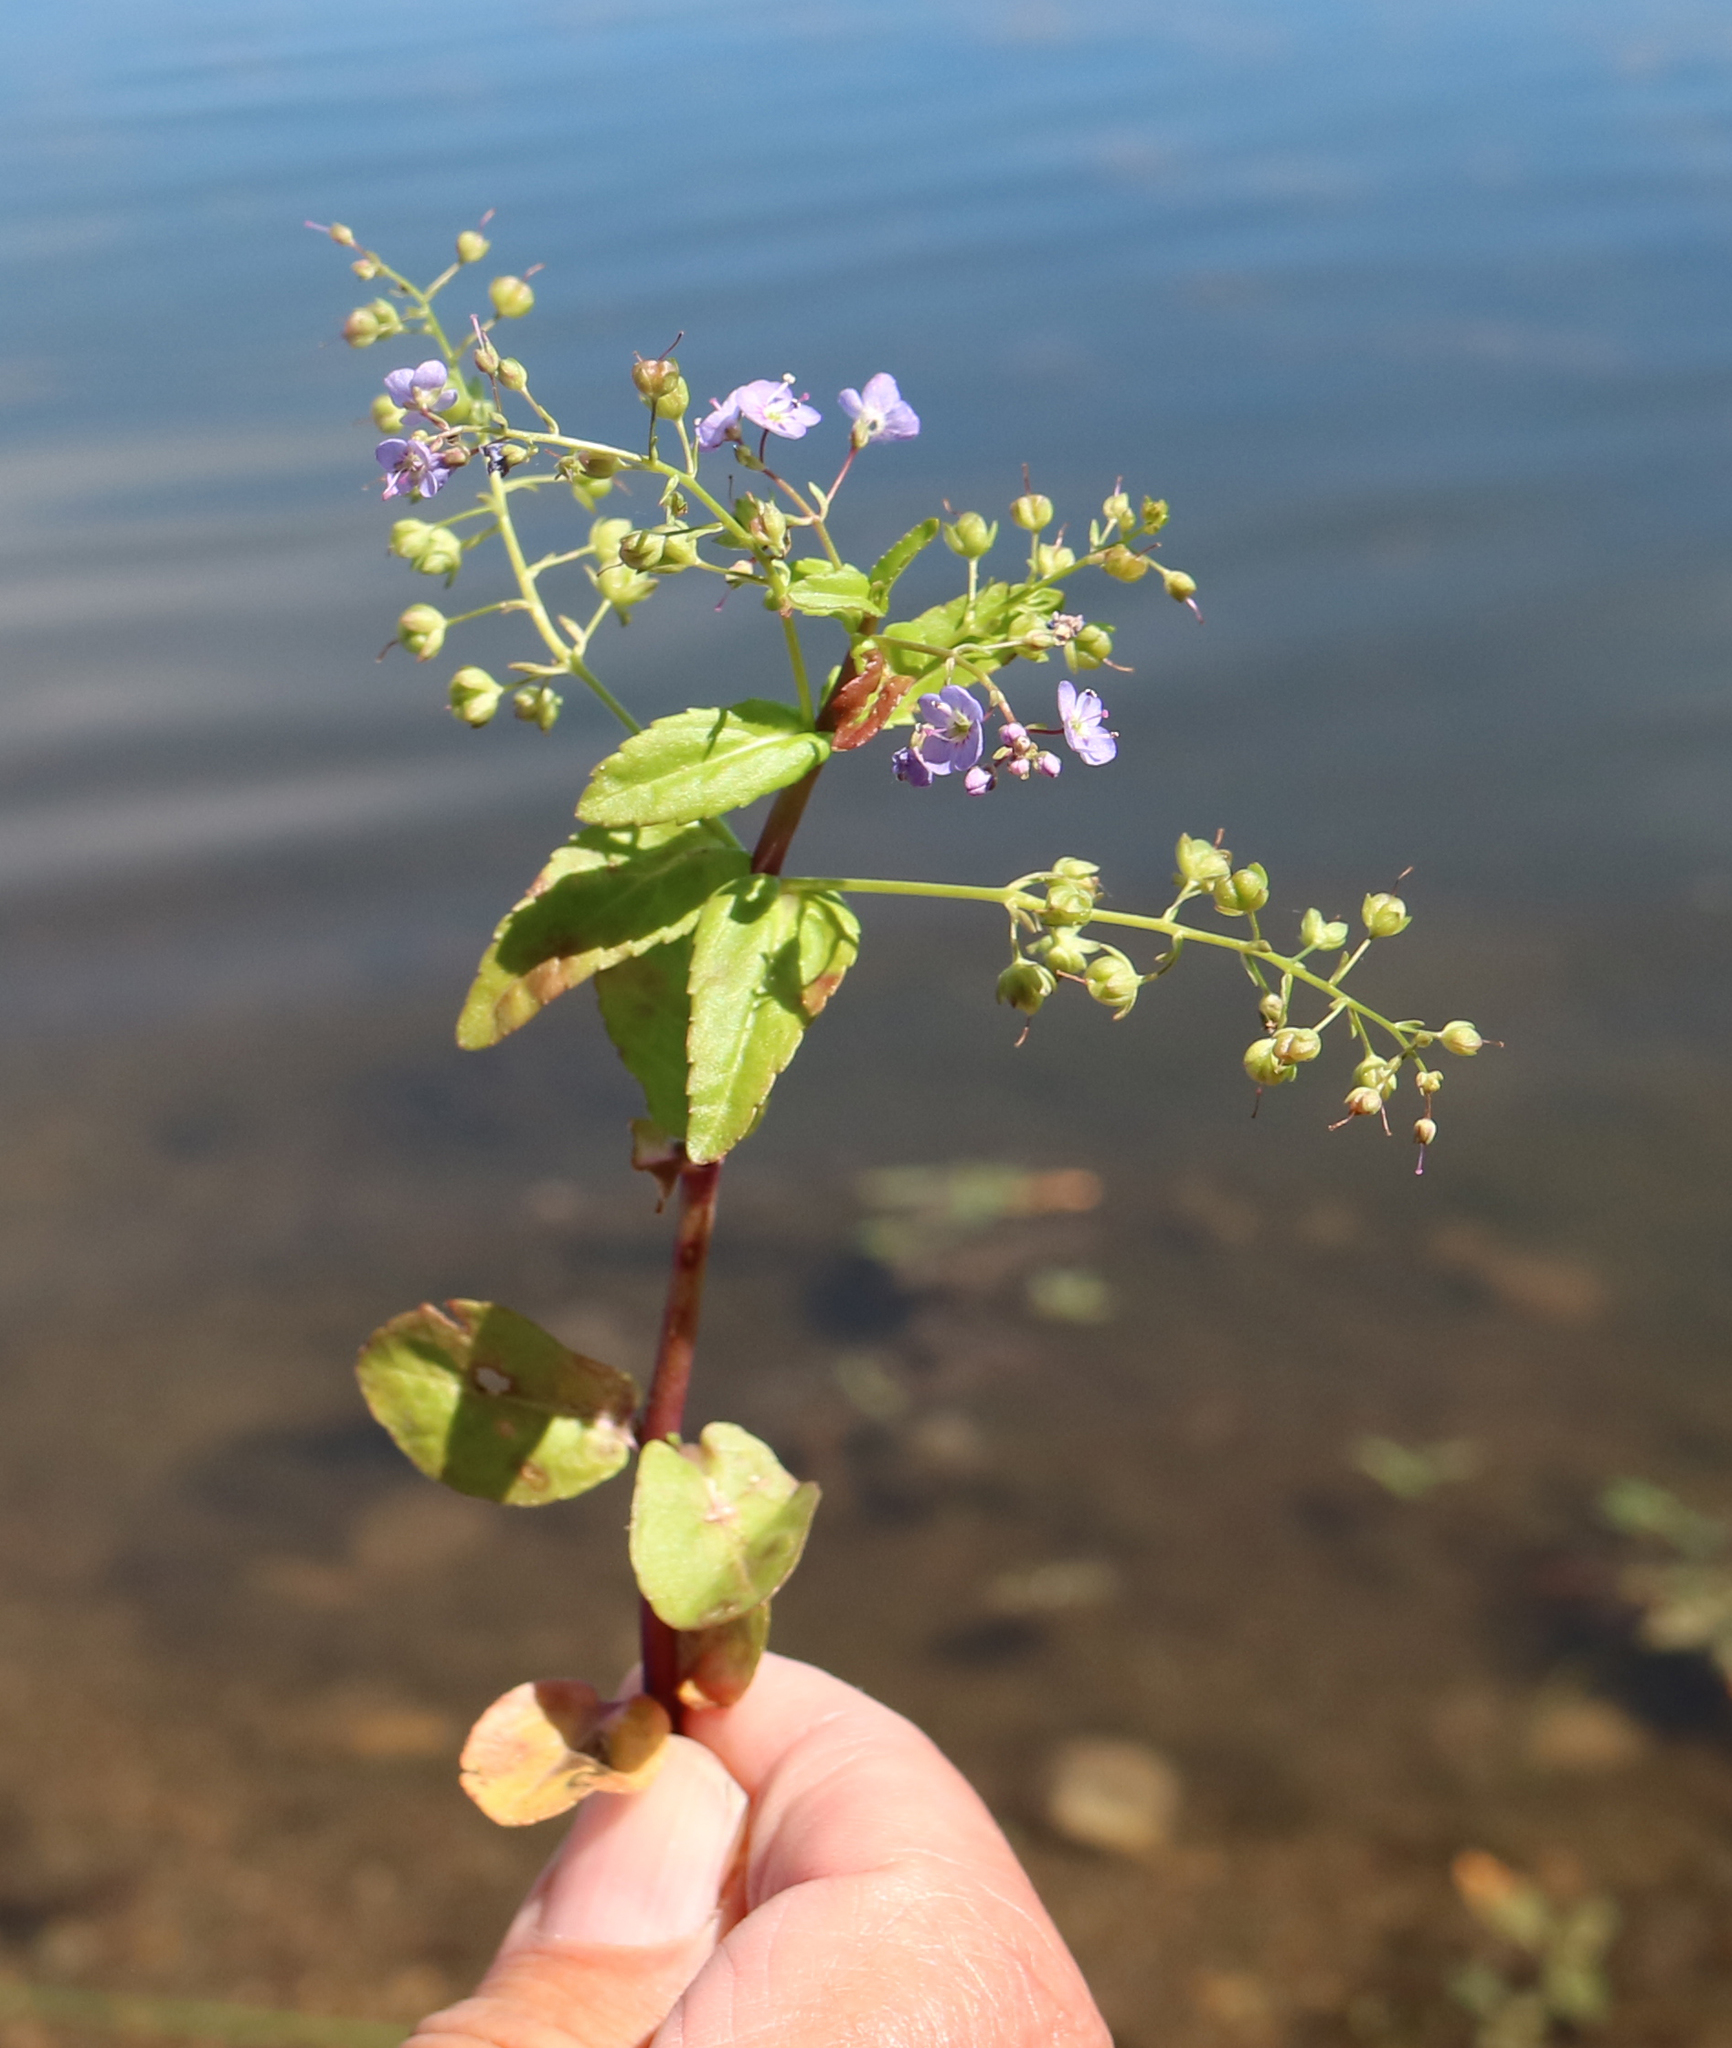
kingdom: Plantae
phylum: Tracheophyta
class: Magnoliopsida
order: Lamiales
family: Plantaginaceae
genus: Veronica
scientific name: Veronica americana
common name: American brooklime
